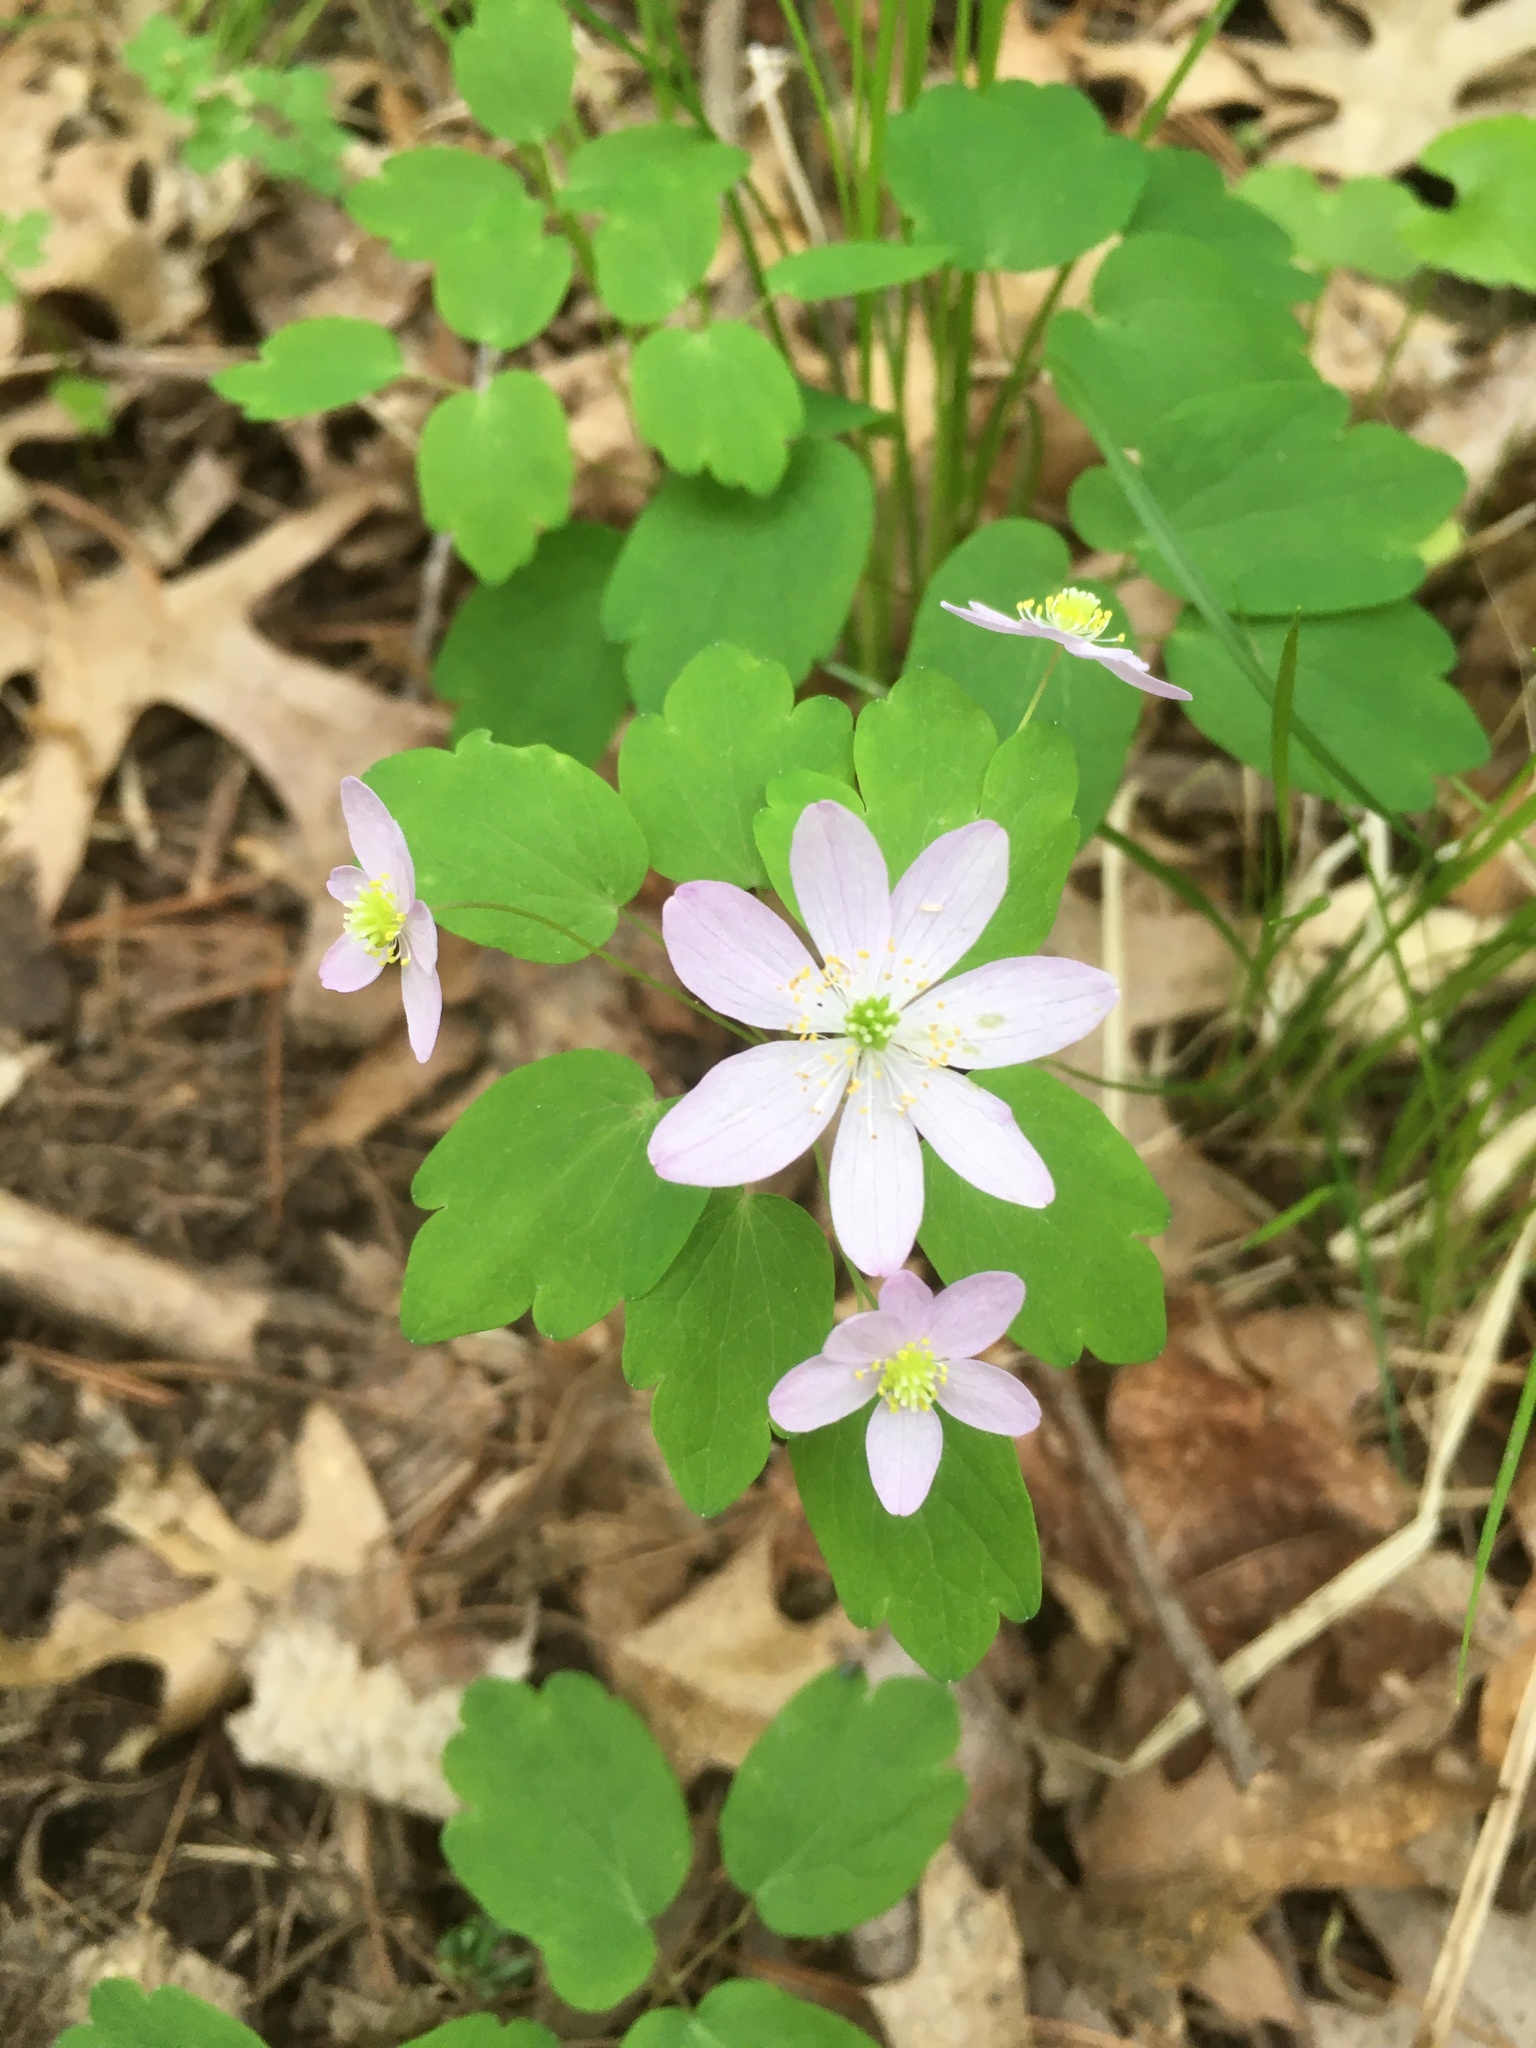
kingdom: Plantae
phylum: Tracheophyta
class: Magnoliopsida
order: Ranunculales
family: Ranunculaceae
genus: Thalictrum
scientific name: Thalictrum thalictroides
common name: Rue-anemone
